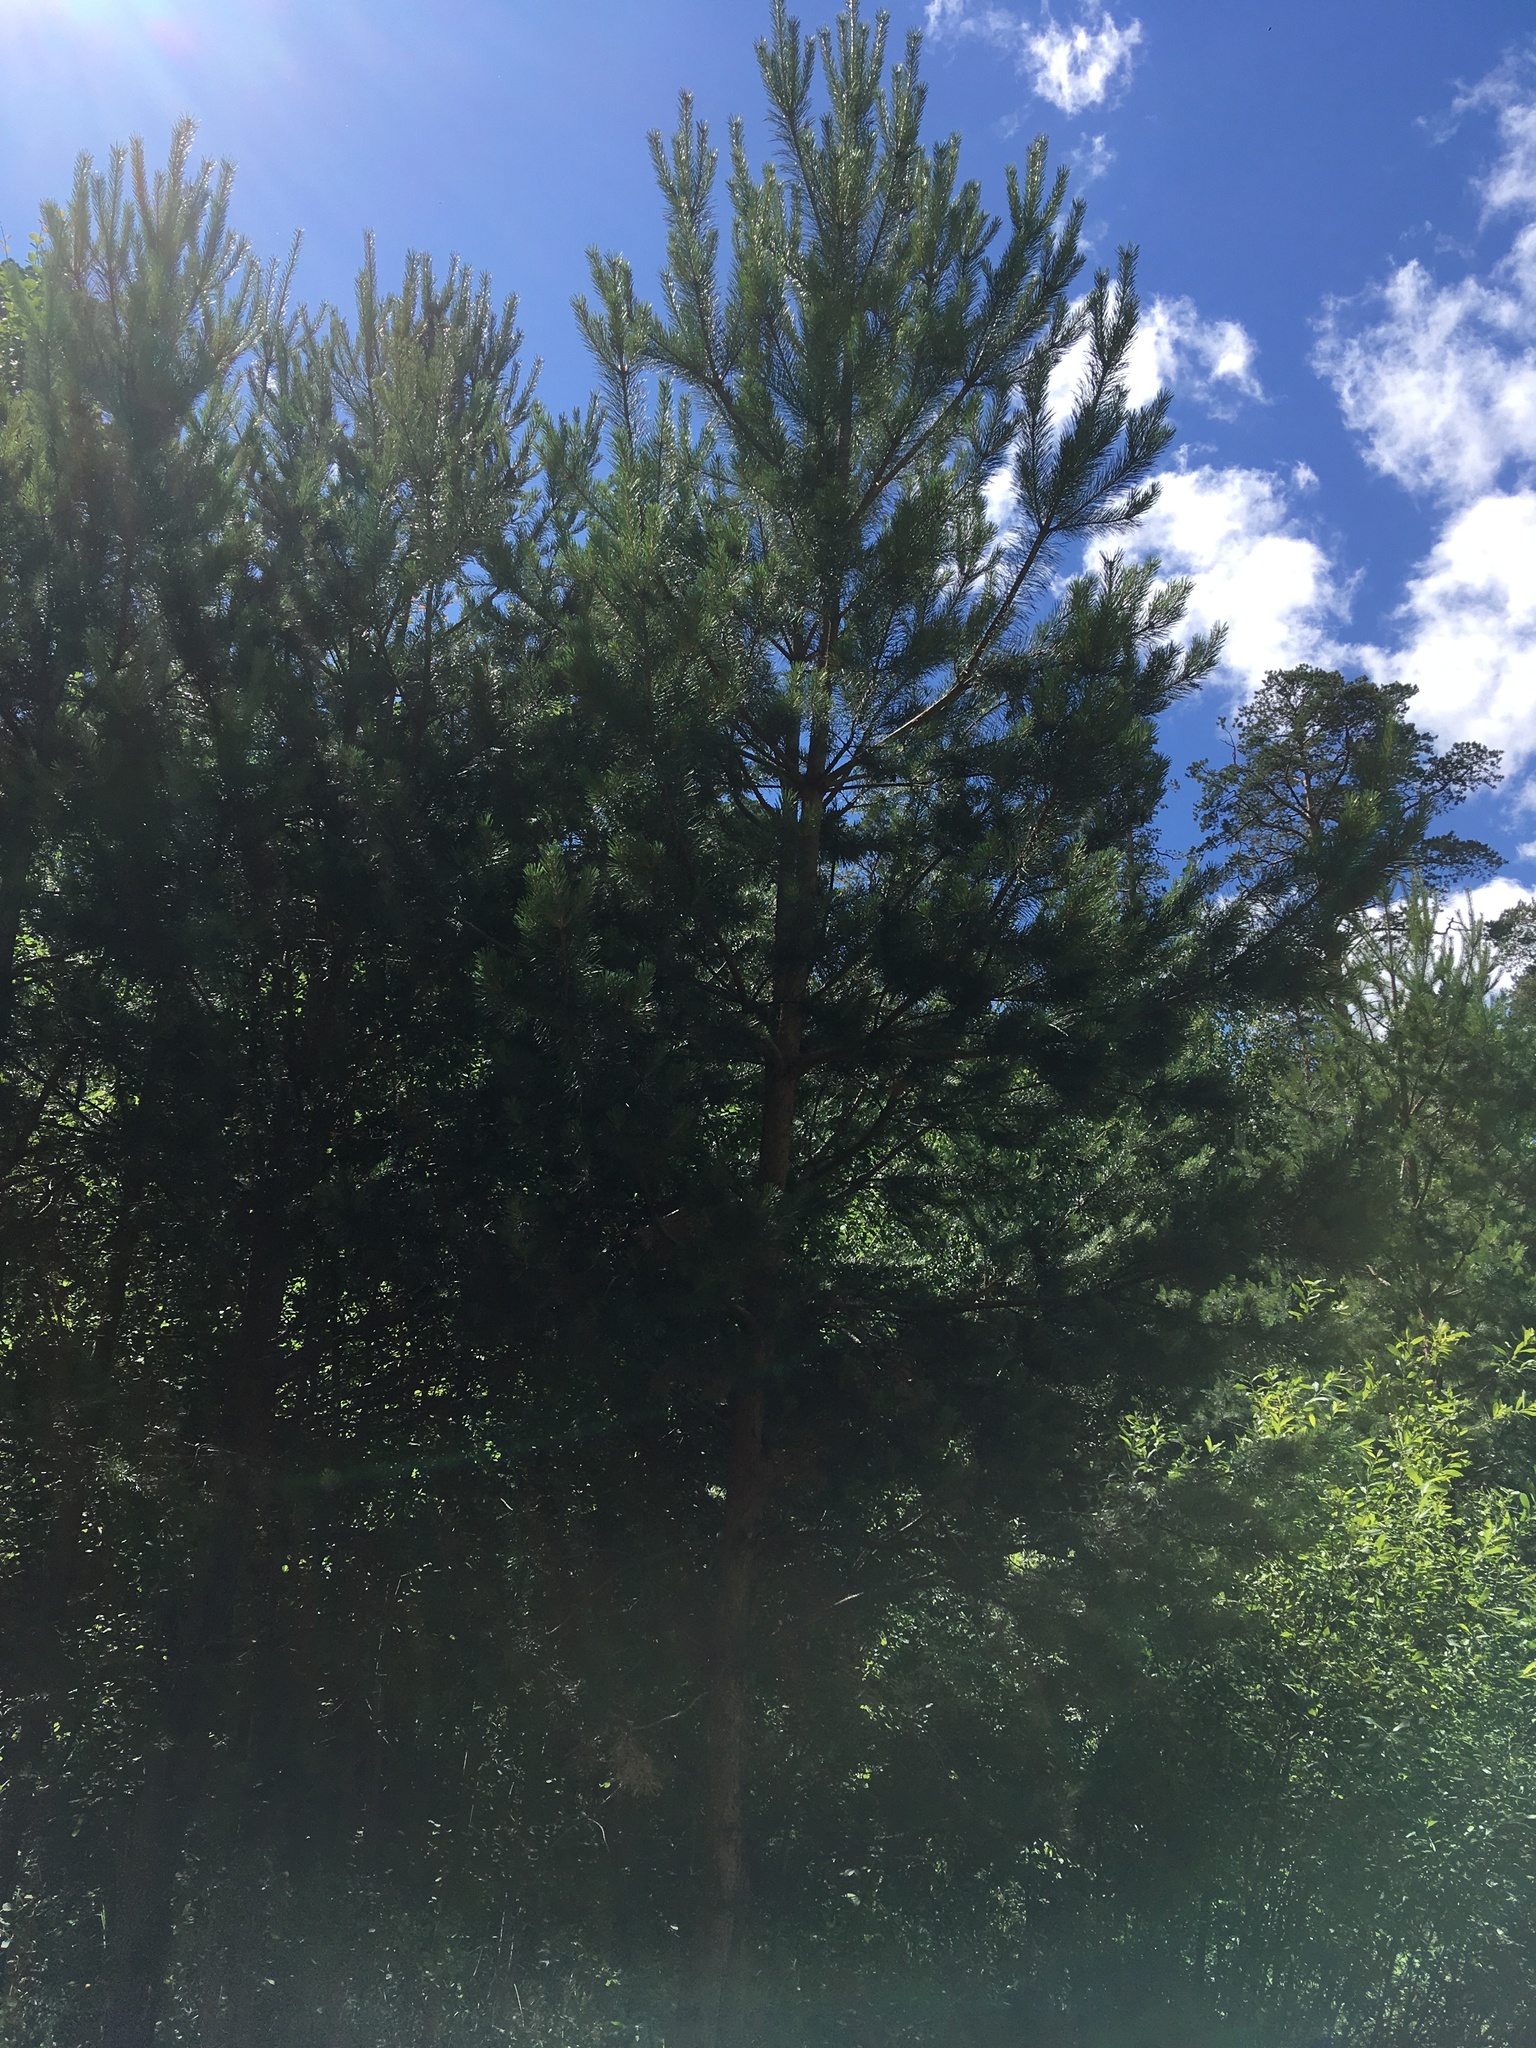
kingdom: Plantae
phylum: Tracheophyta
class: Pinopsida
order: Pinales
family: Pinaceae
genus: Pinus
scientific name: Pinus sylvestris
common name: Scots pine
